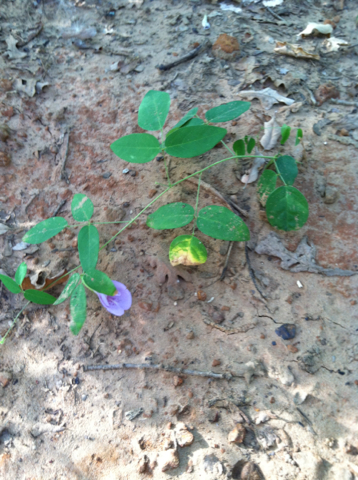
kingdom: Plantae
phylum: Tracheophyta
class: Magnoliopsida
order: Fabales
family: Fabaceae
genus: Clitoria
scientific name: Clitoria mariana
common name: Butterfly-pea
